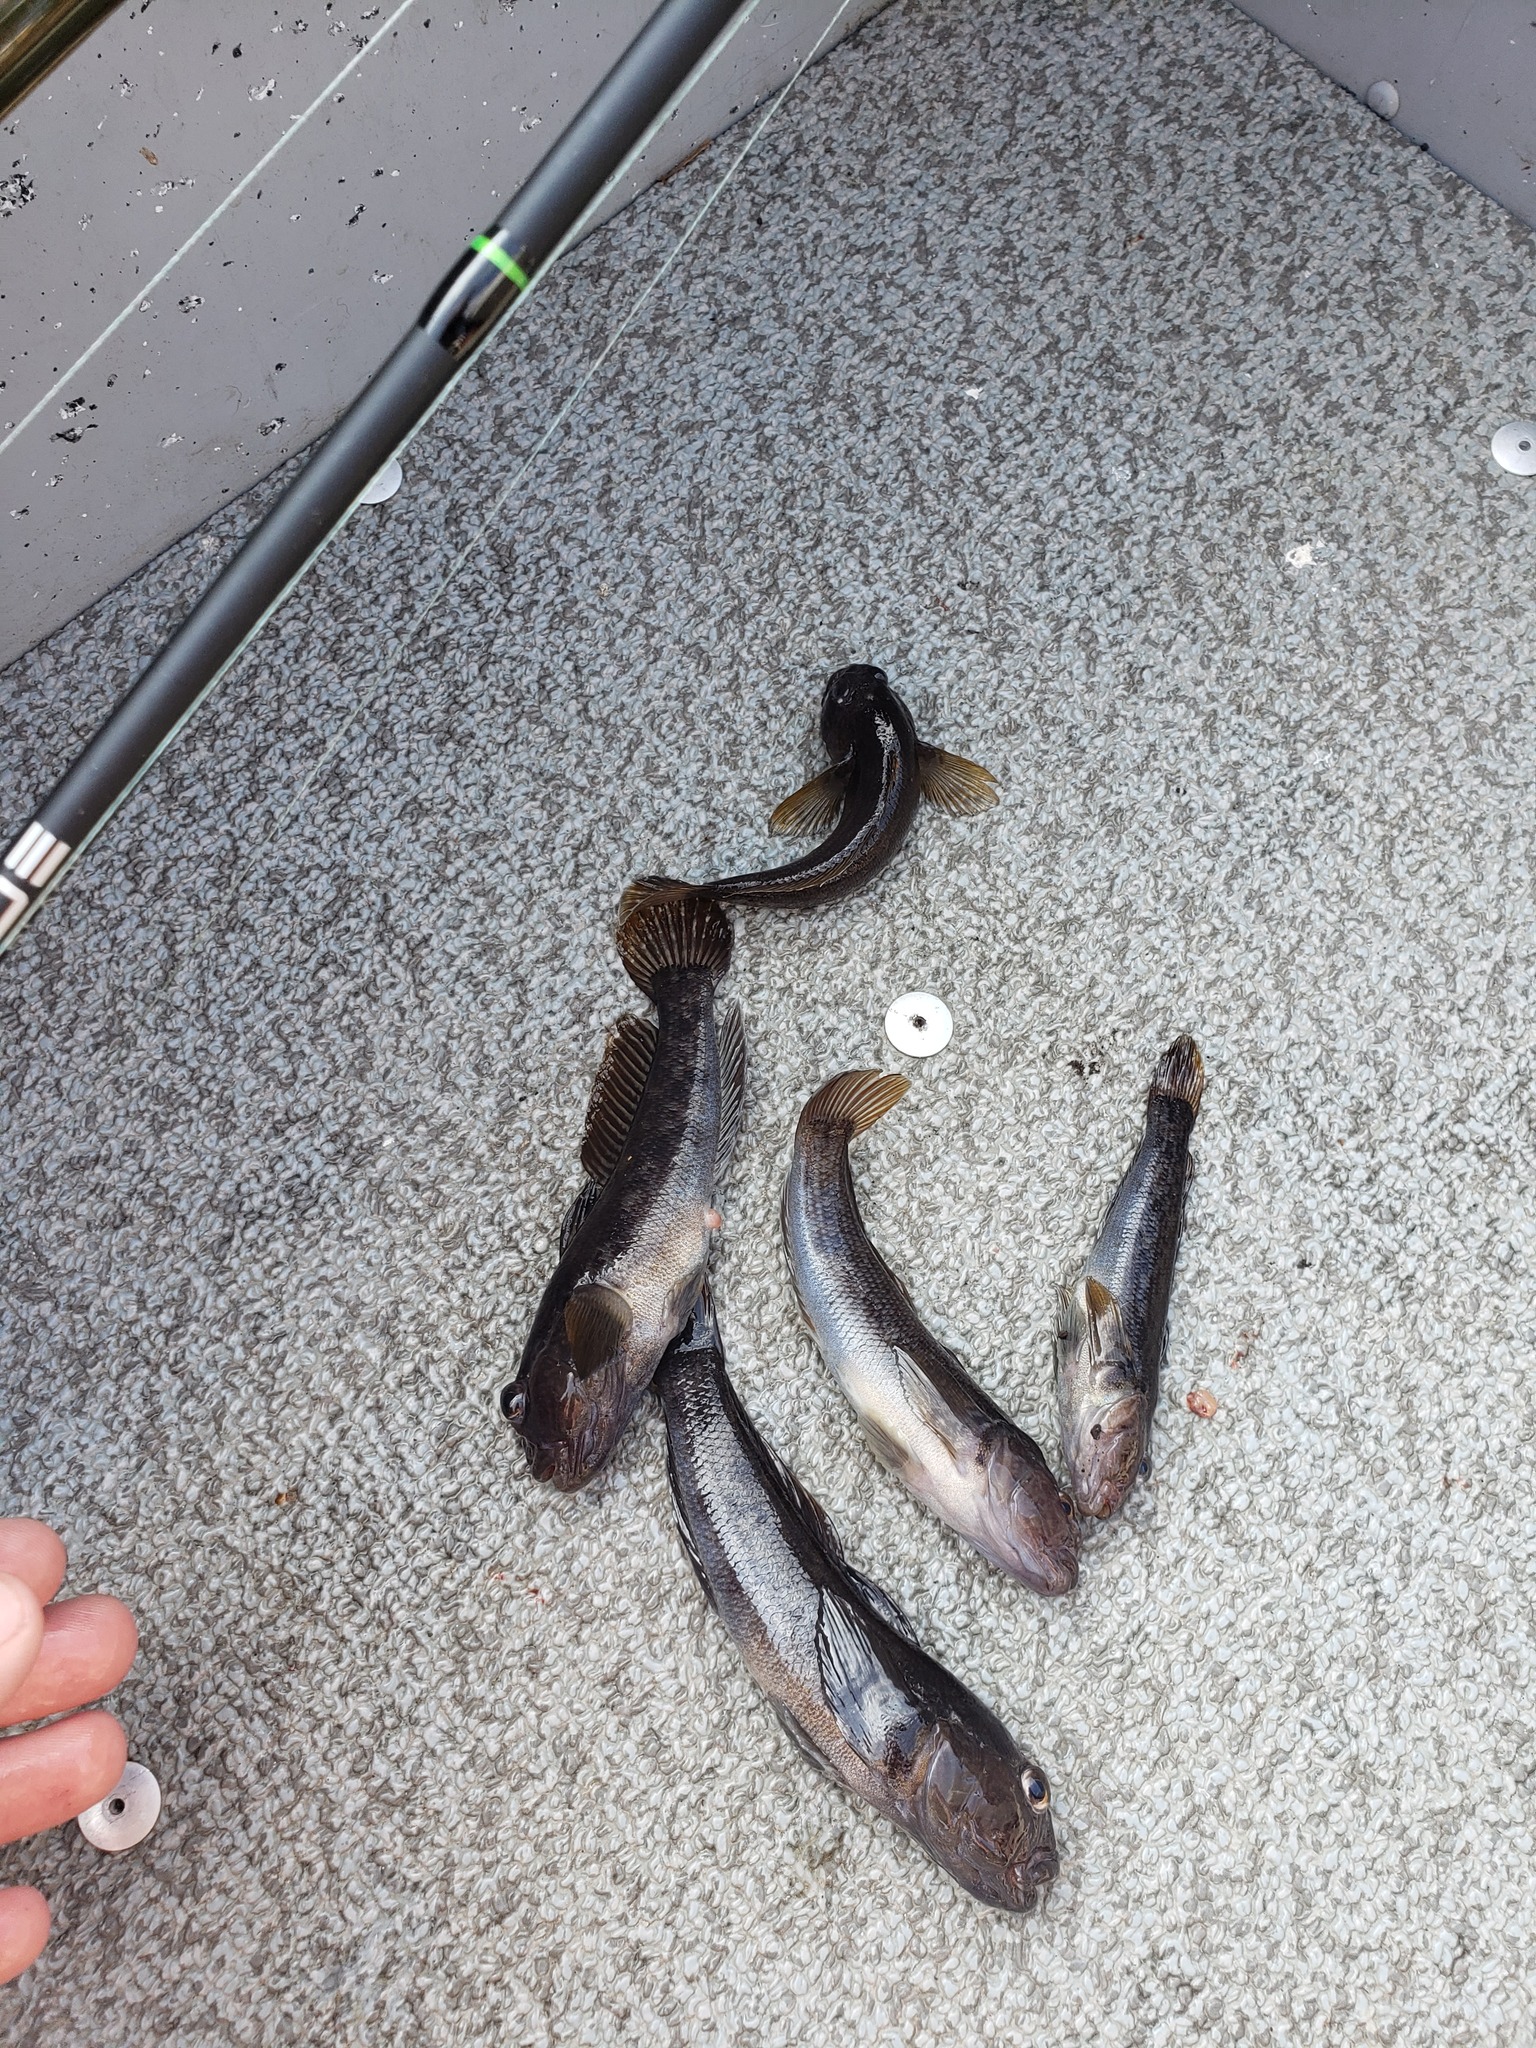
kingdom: Animalia
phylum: Chordata
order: Perciformes
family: Gobiidae
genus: Neogobius
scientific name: Neogobius melanostomus
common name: Round goby
